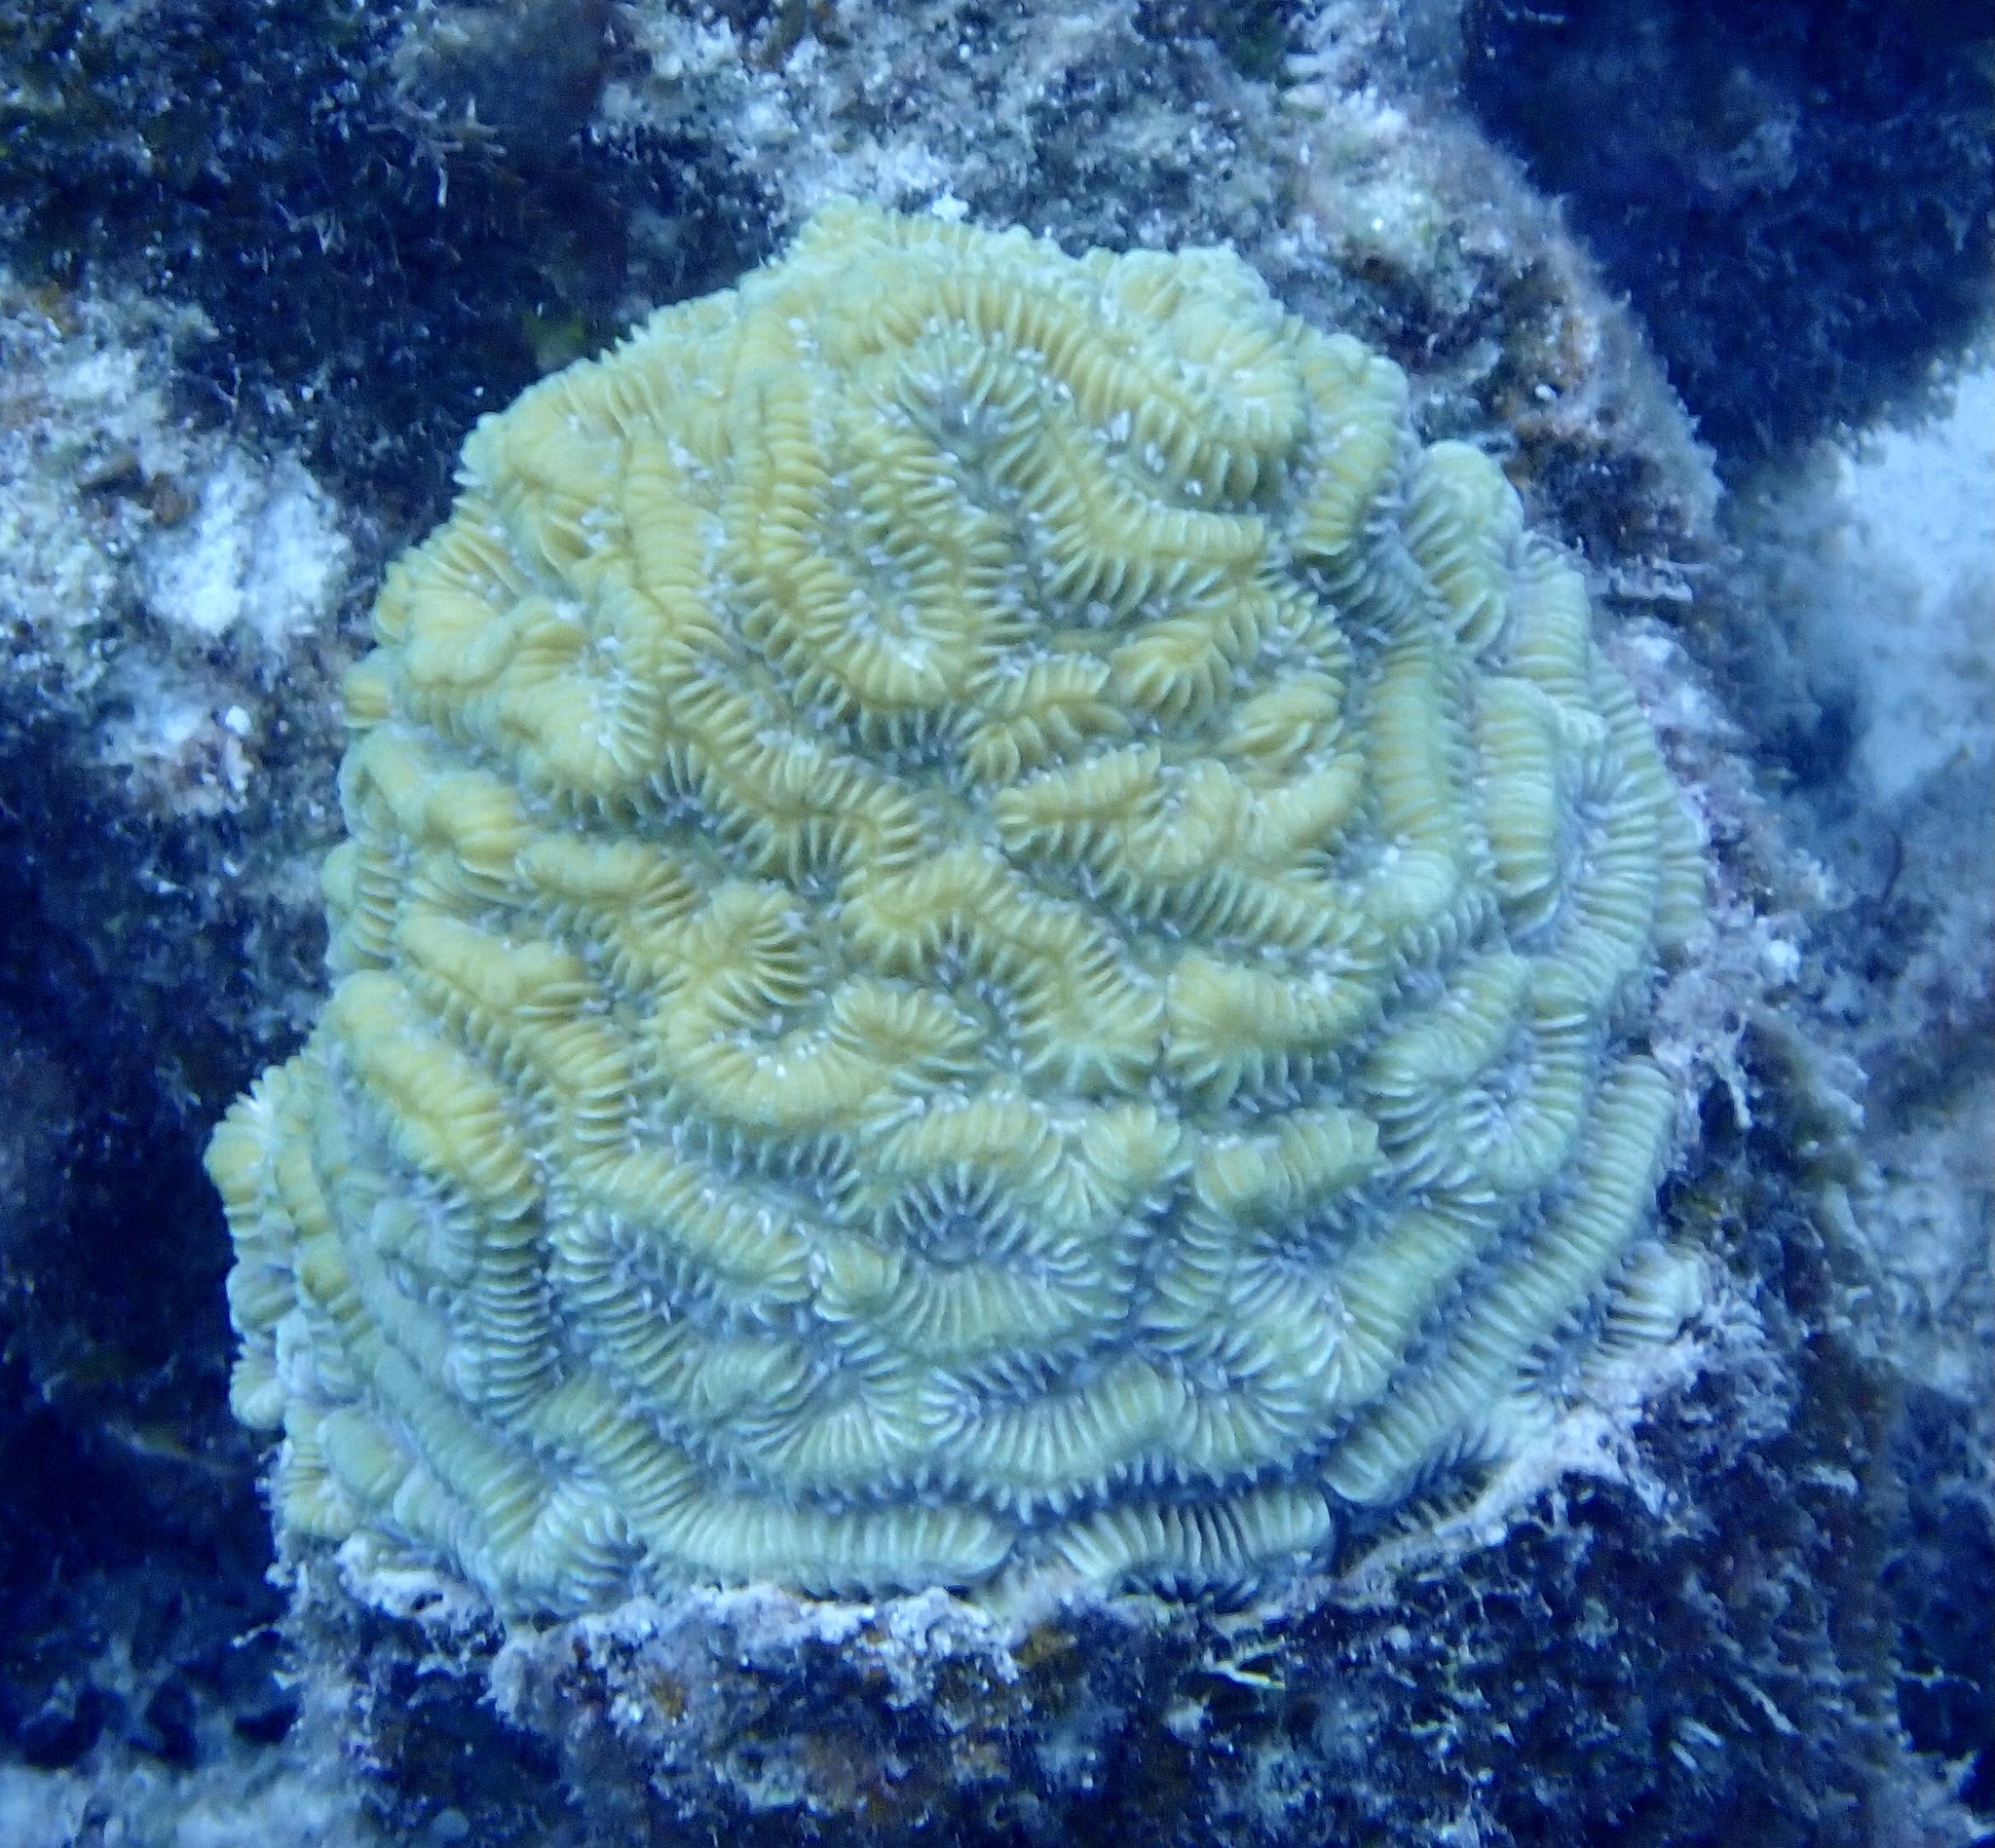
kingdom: Animalia
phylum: Cnidaria
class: Anthozoa
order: Scleractinia
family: Meandrinidae
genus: Meandrina
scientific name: Meandrina meandrites
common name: Maze coral
